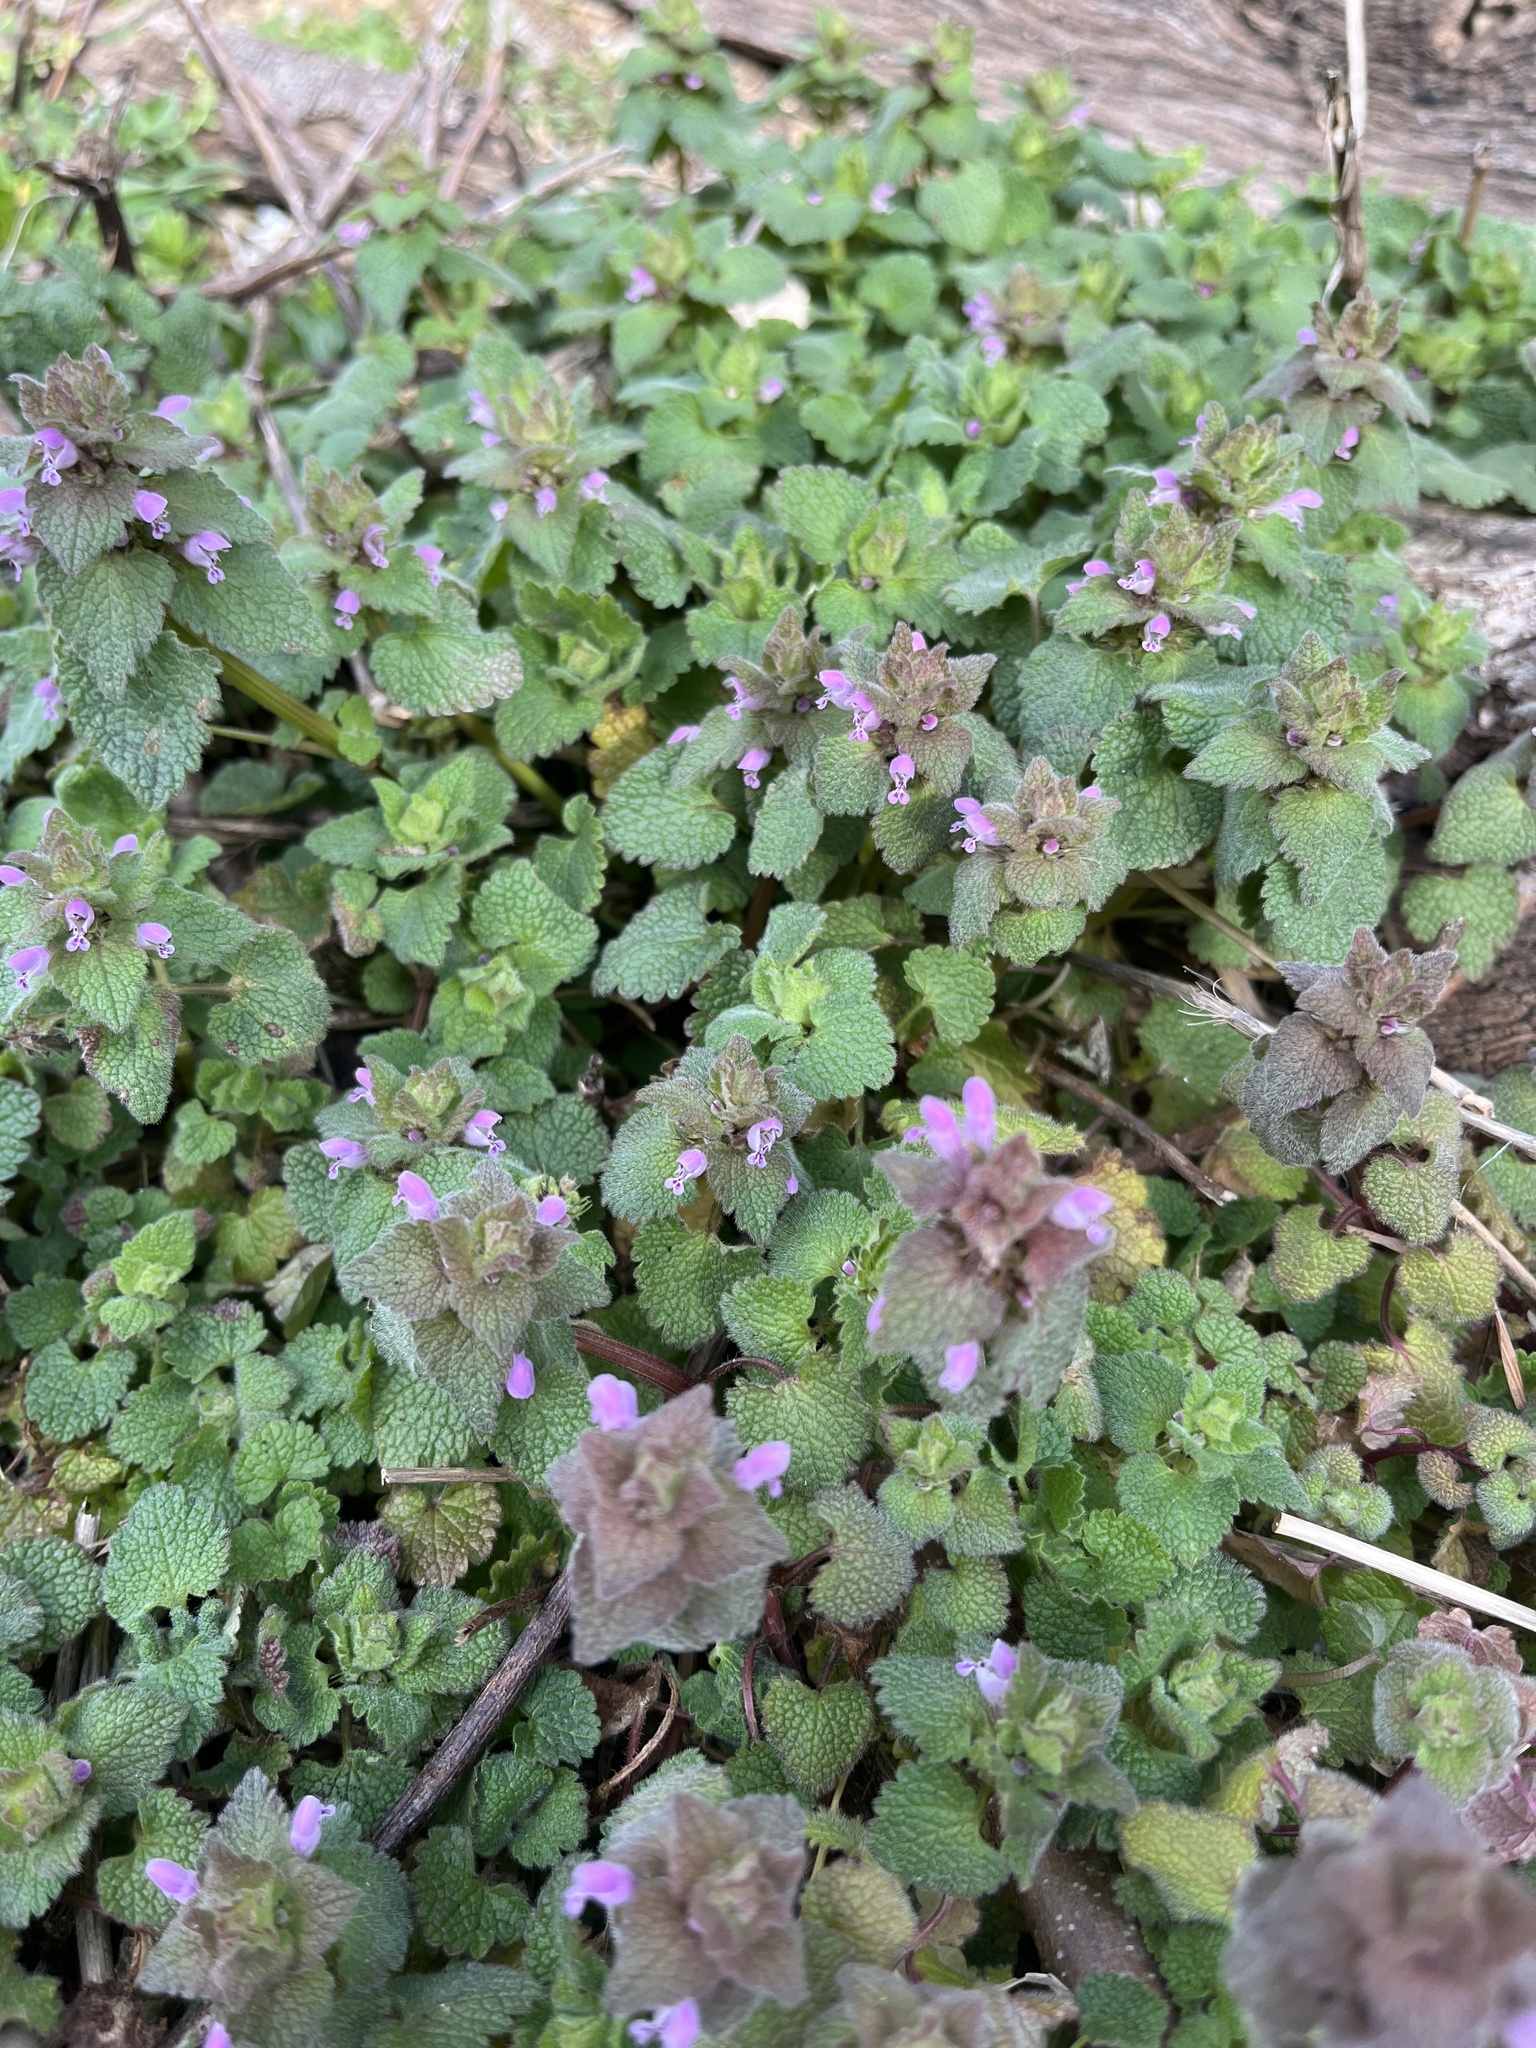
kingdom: Plantae
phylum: Tracheophyta
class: Magnoliopsida
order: Lamiales
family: Lamiaceae
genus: Lamium
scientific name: Lamium purpureum
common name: Red dead-nettle
